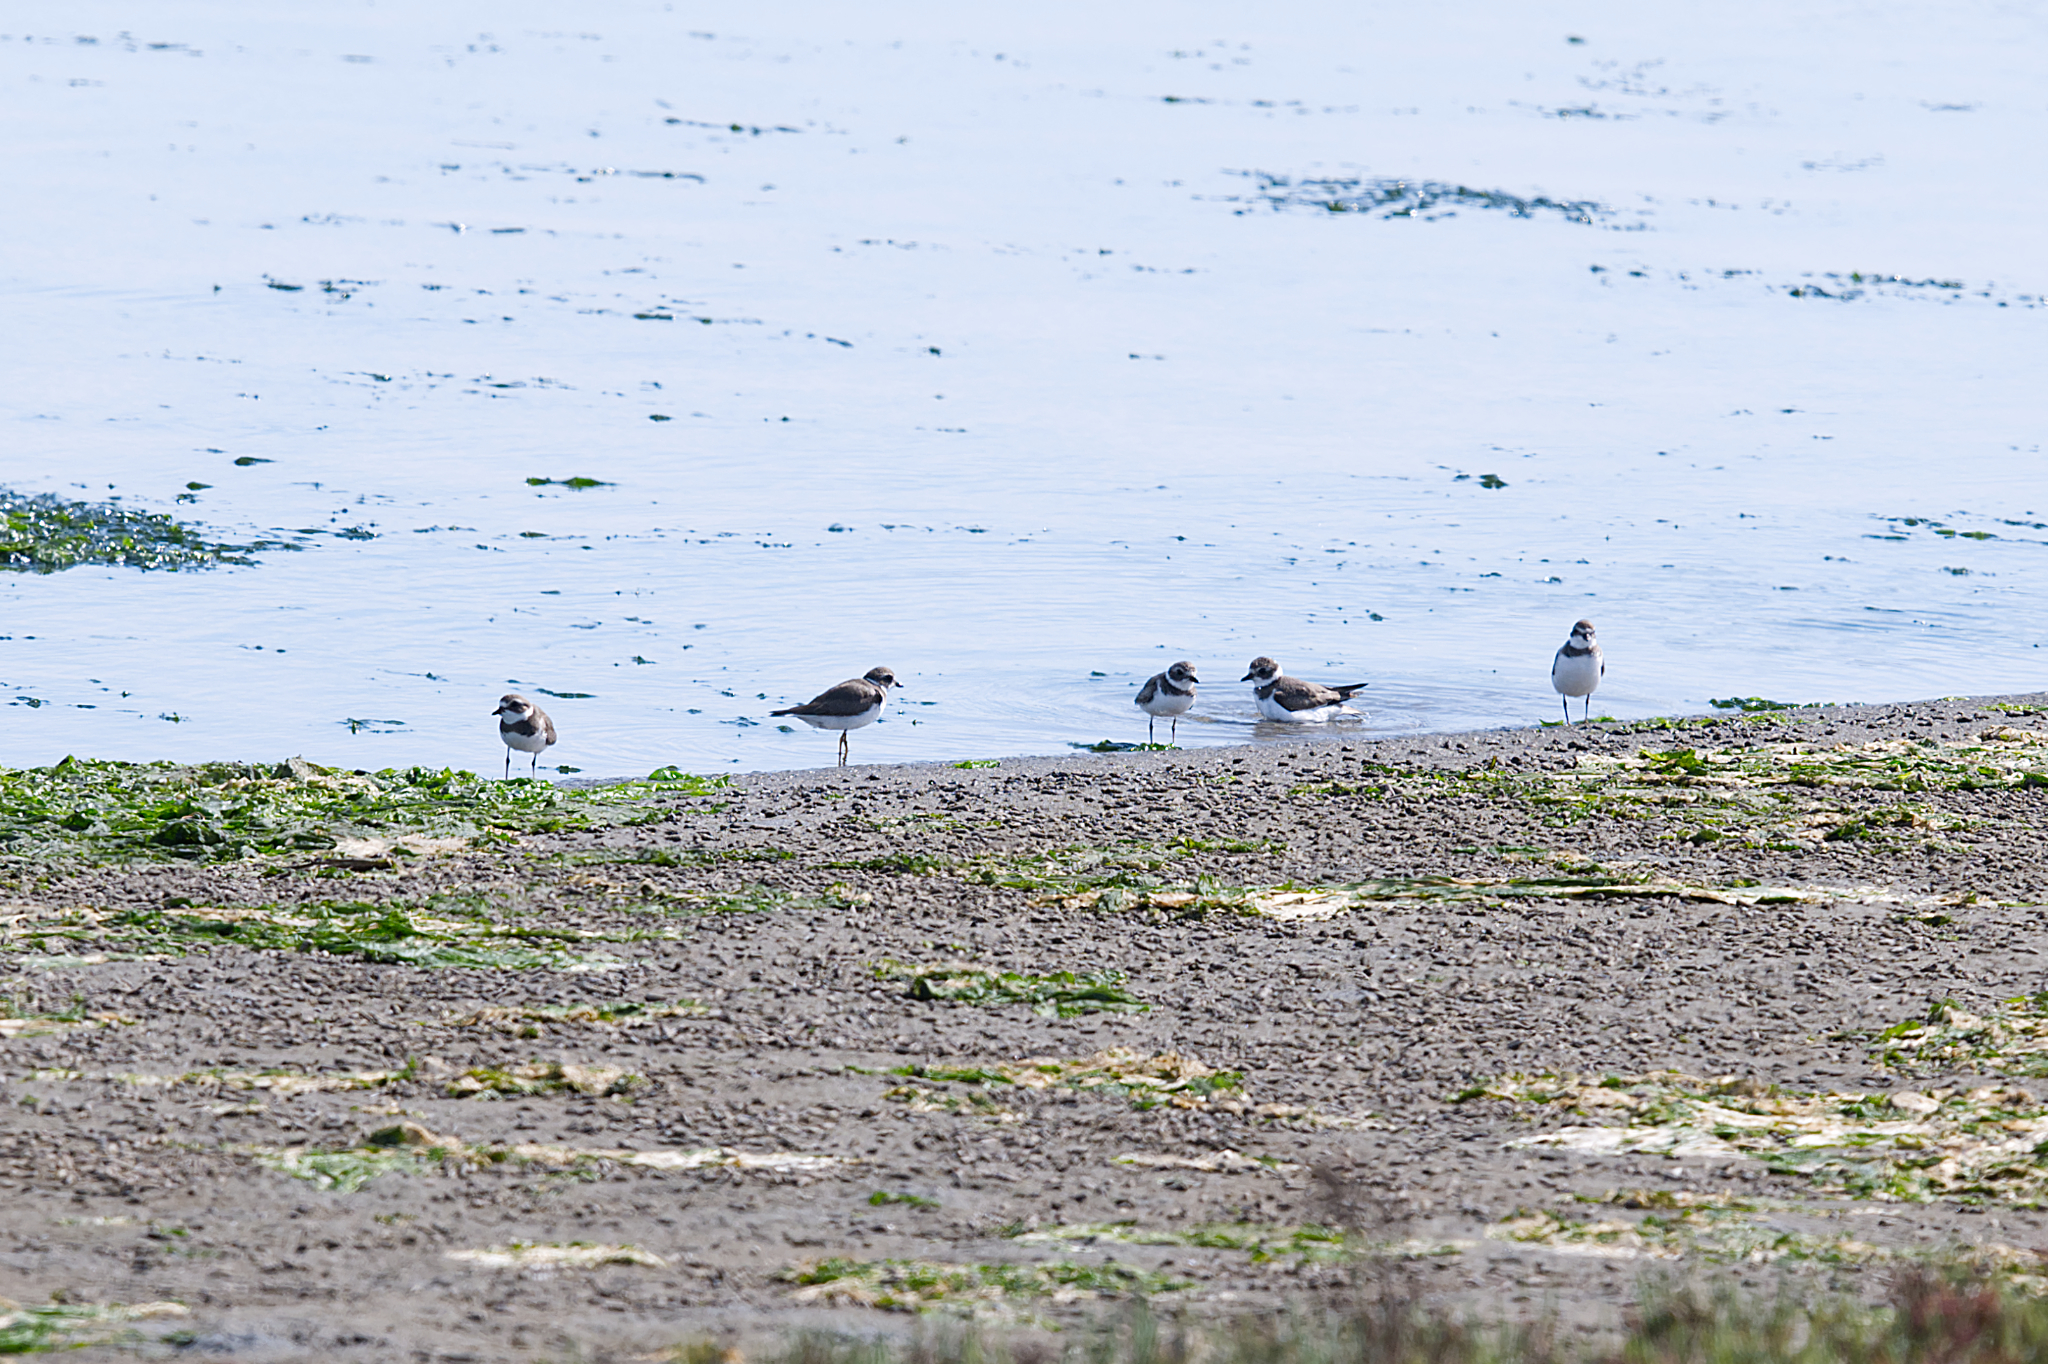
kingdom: Animalia
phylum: Chordata
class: Aves
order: Charadriiformes
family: Charadriidae
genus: Charadrius
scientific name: Charadrius semipalmatus
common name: Semipalmated plover
